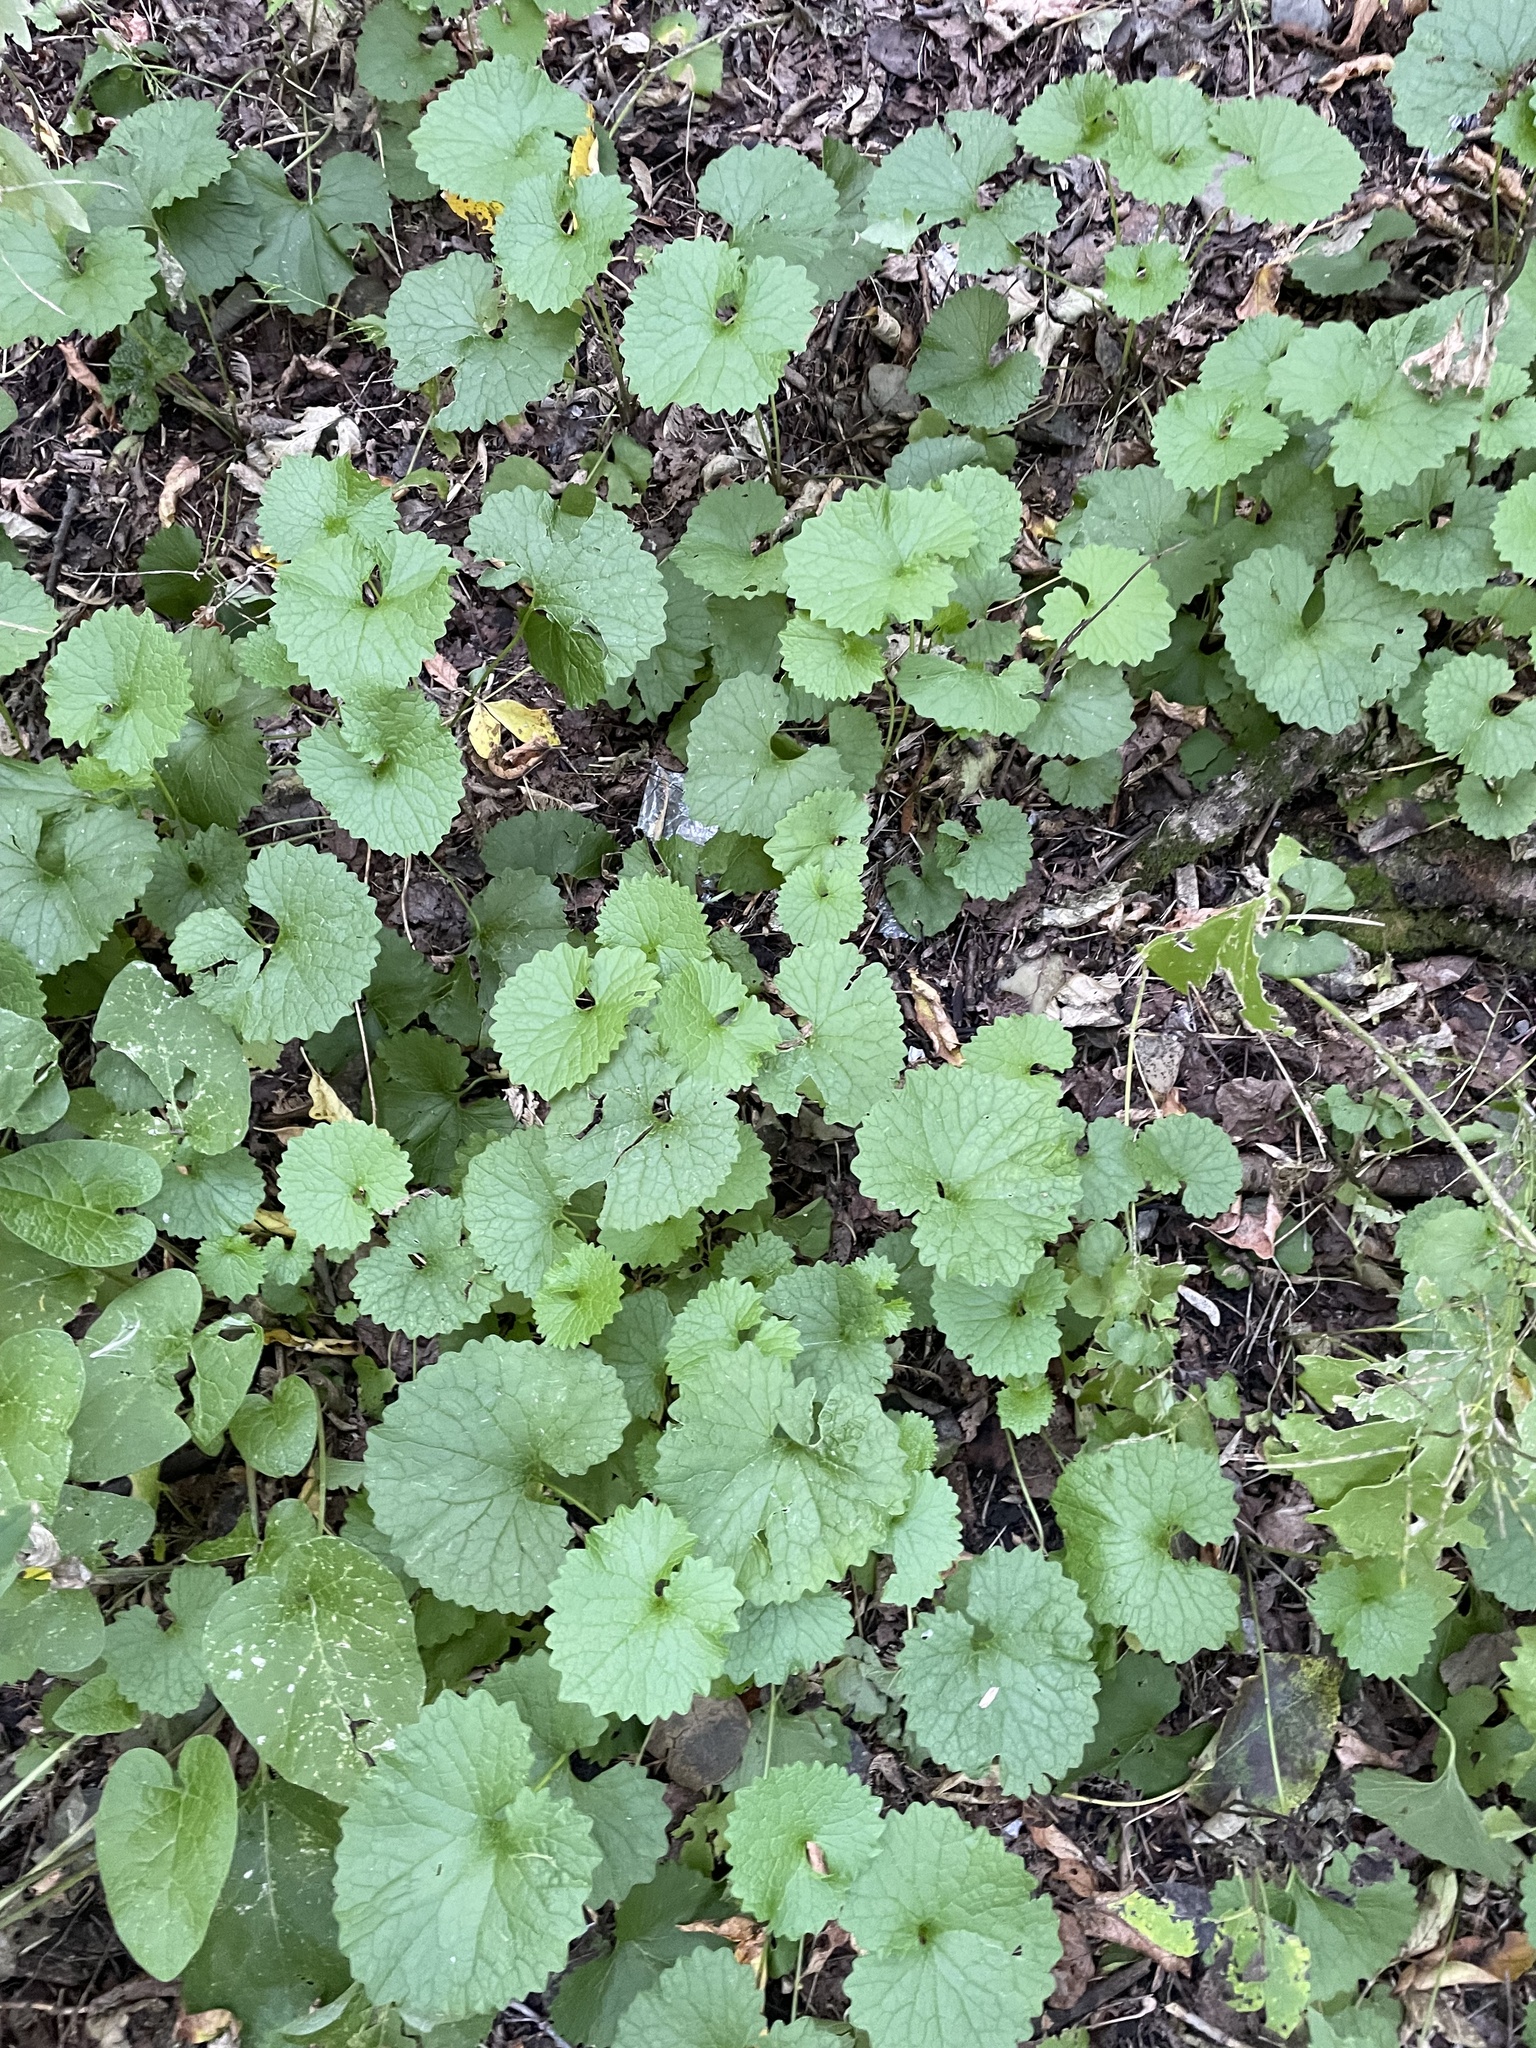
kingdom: Plantae
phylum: Tracheophyta
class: Magnoliopsida
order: Brassicales
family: Brassicaceae
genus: Alliaria
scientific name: Alliaria petiolata
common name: Garlic mustard
